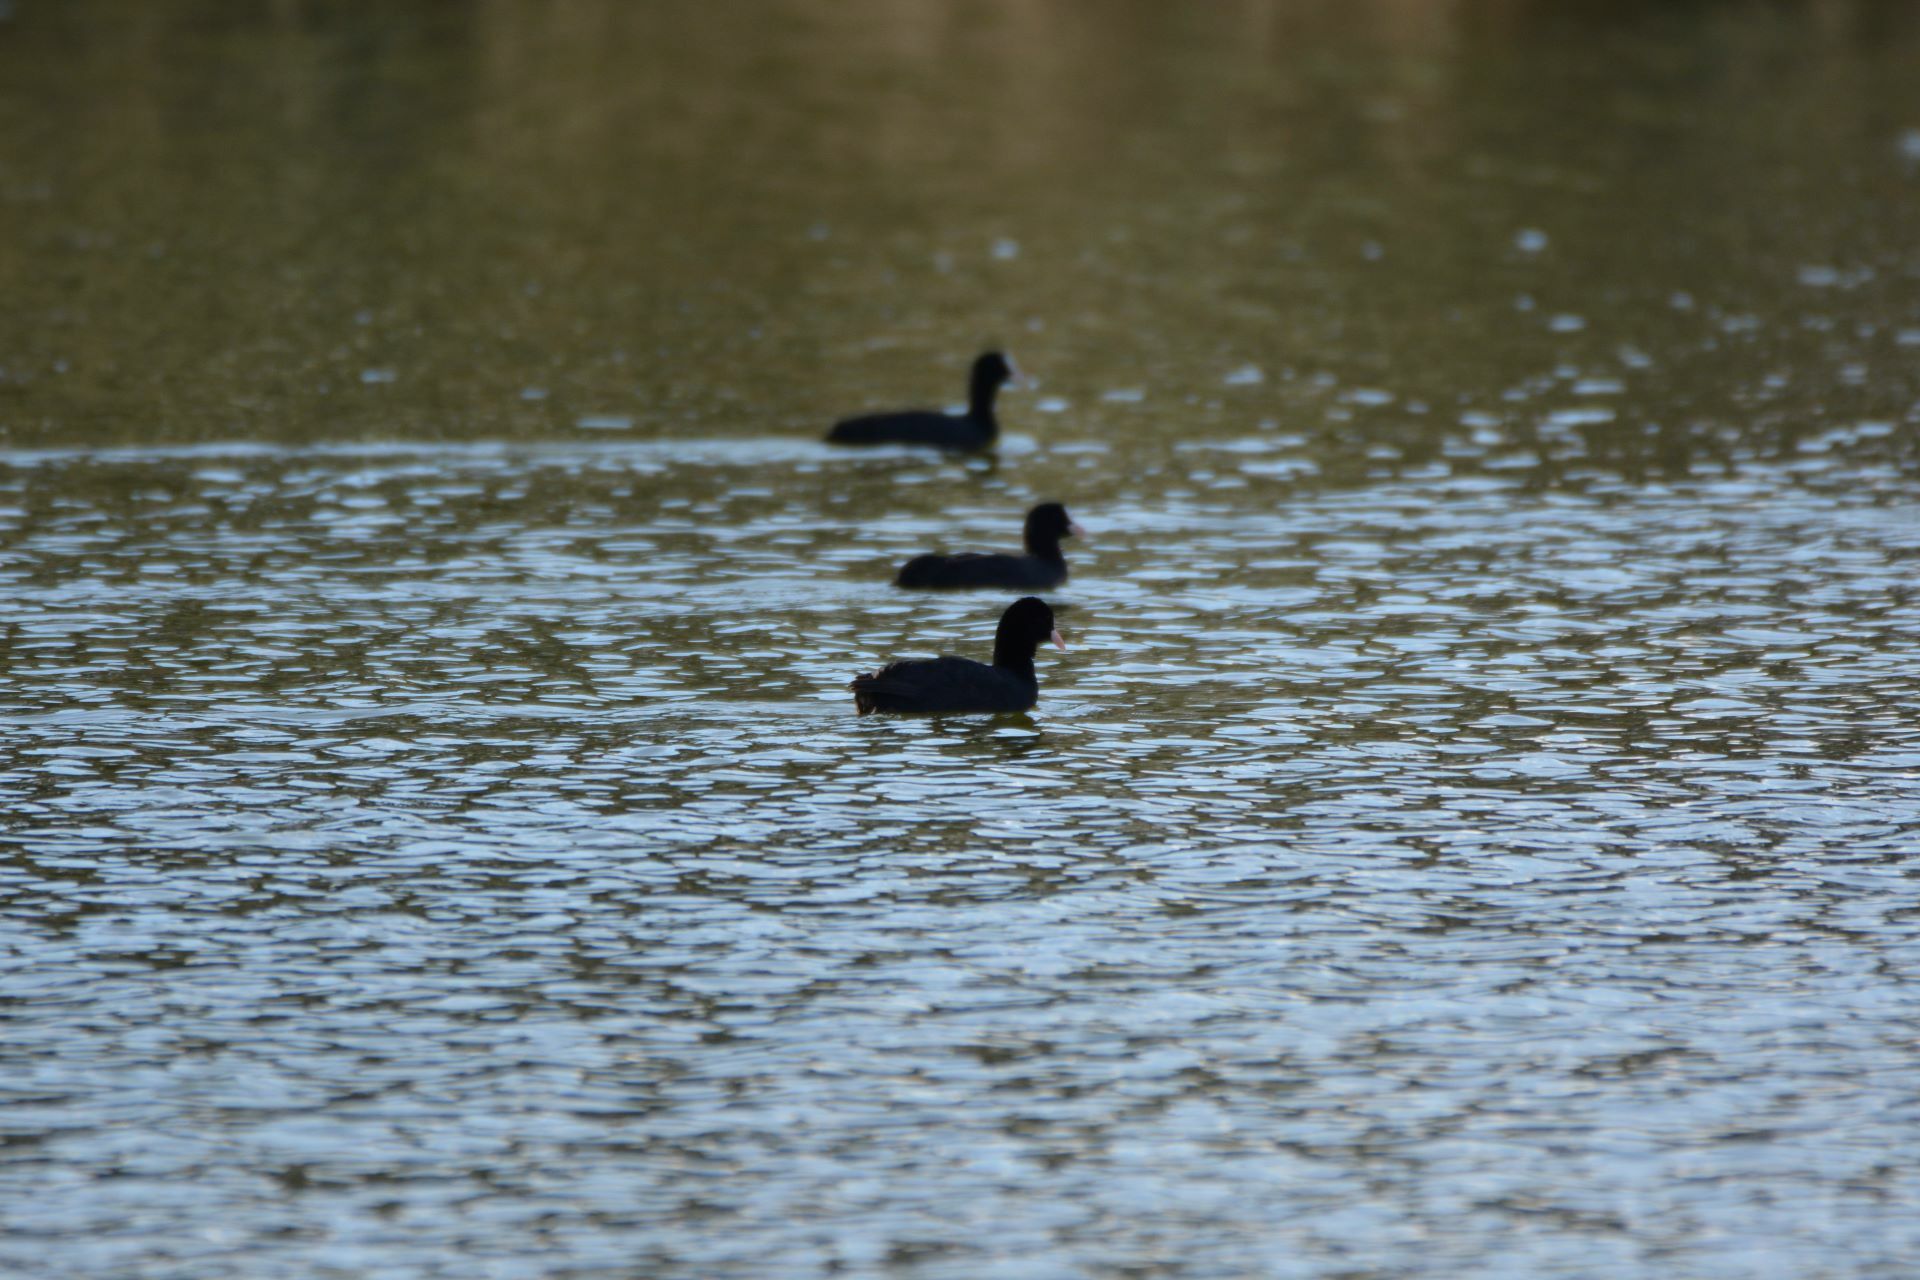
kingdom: Animalia
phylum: Chordata
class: Aves
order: Gruiformes
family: Rallidae
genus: Fulica
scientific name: Fulica atra
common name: Eurasian coot
